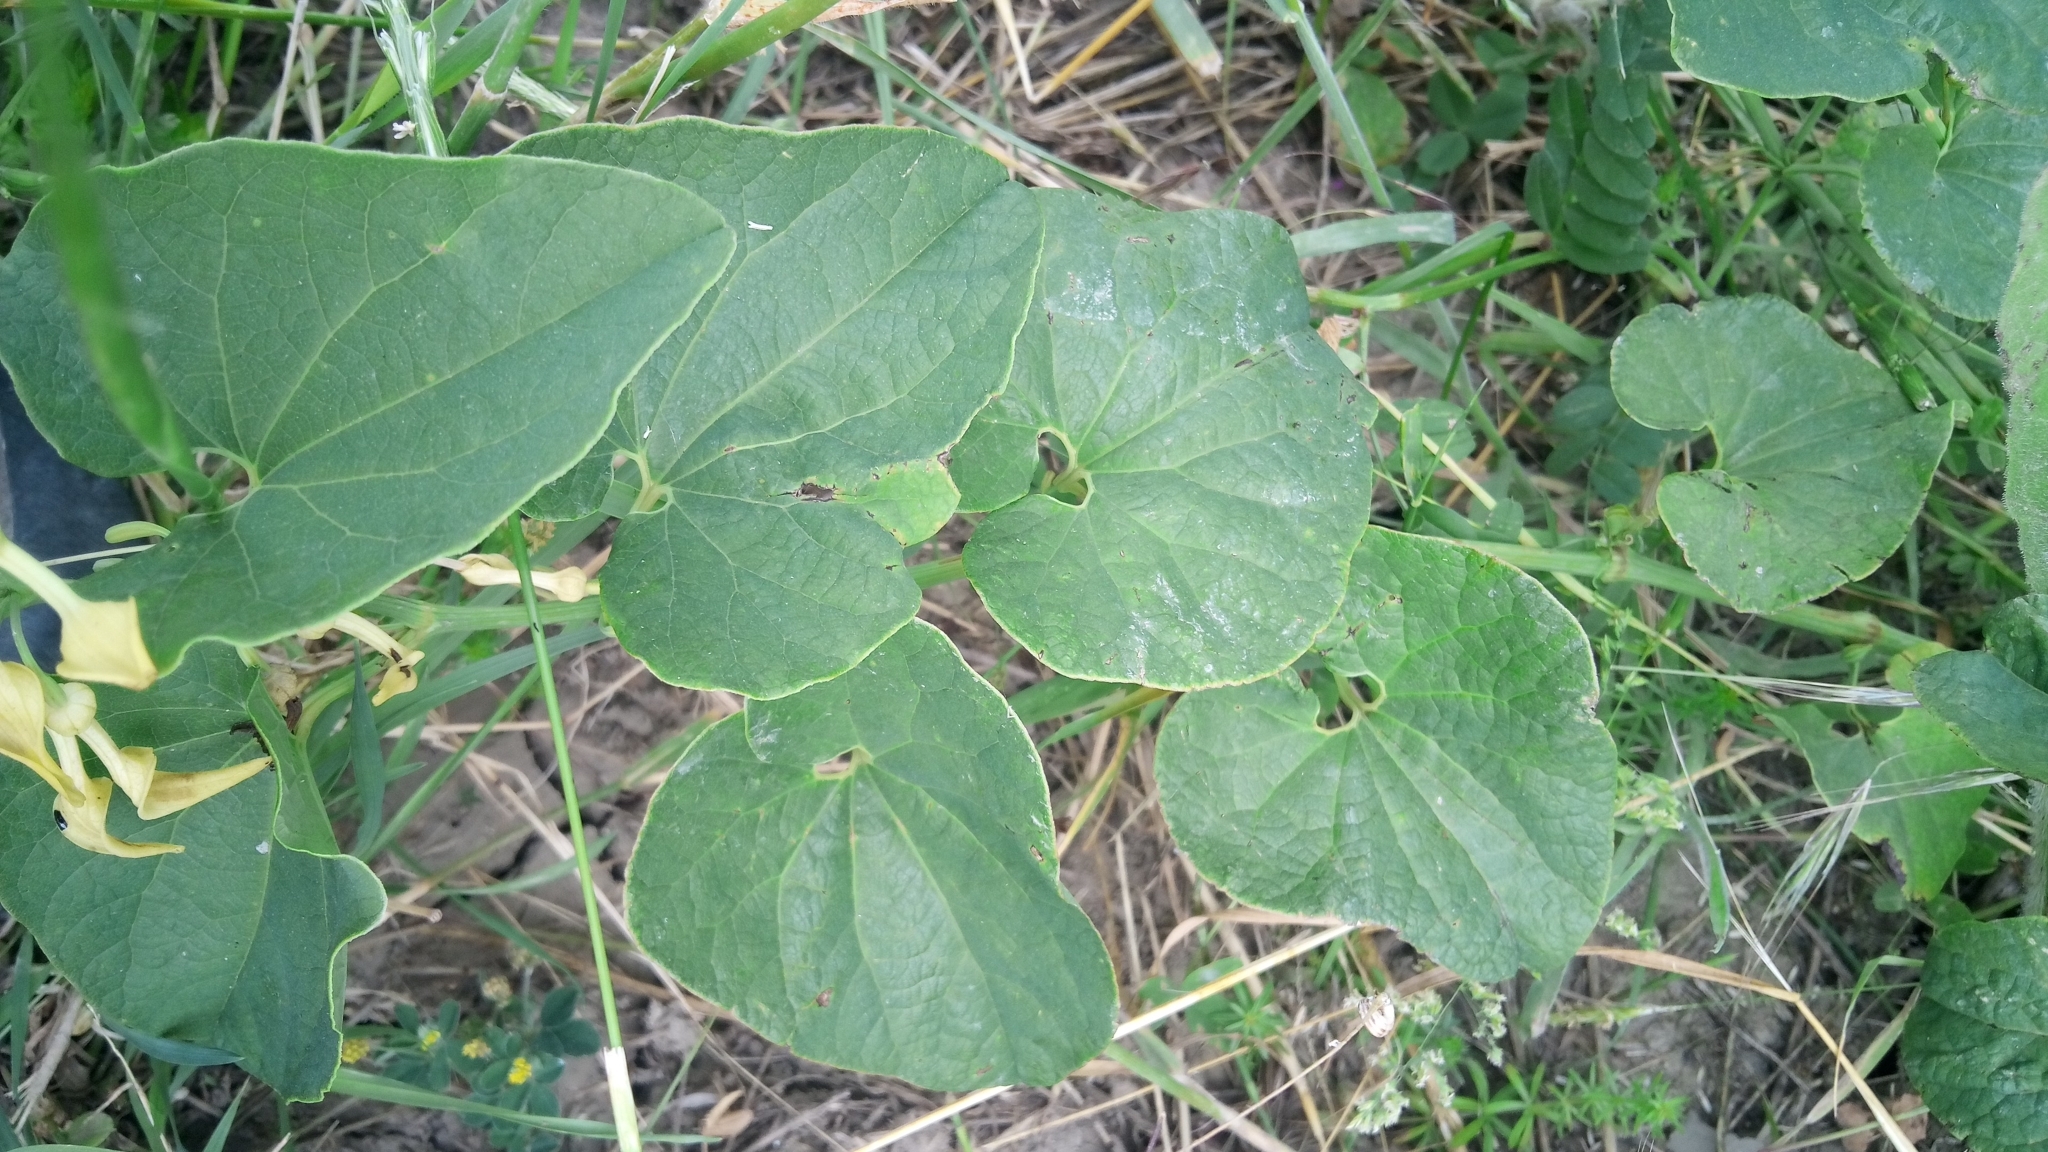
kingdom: Plantae
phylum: Tracheophyta
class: Magnoliopsida
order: Piperales
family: Aristolochiaceae
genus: Aristolochia
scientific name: Aristolochia clematitis
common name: Birthwort
